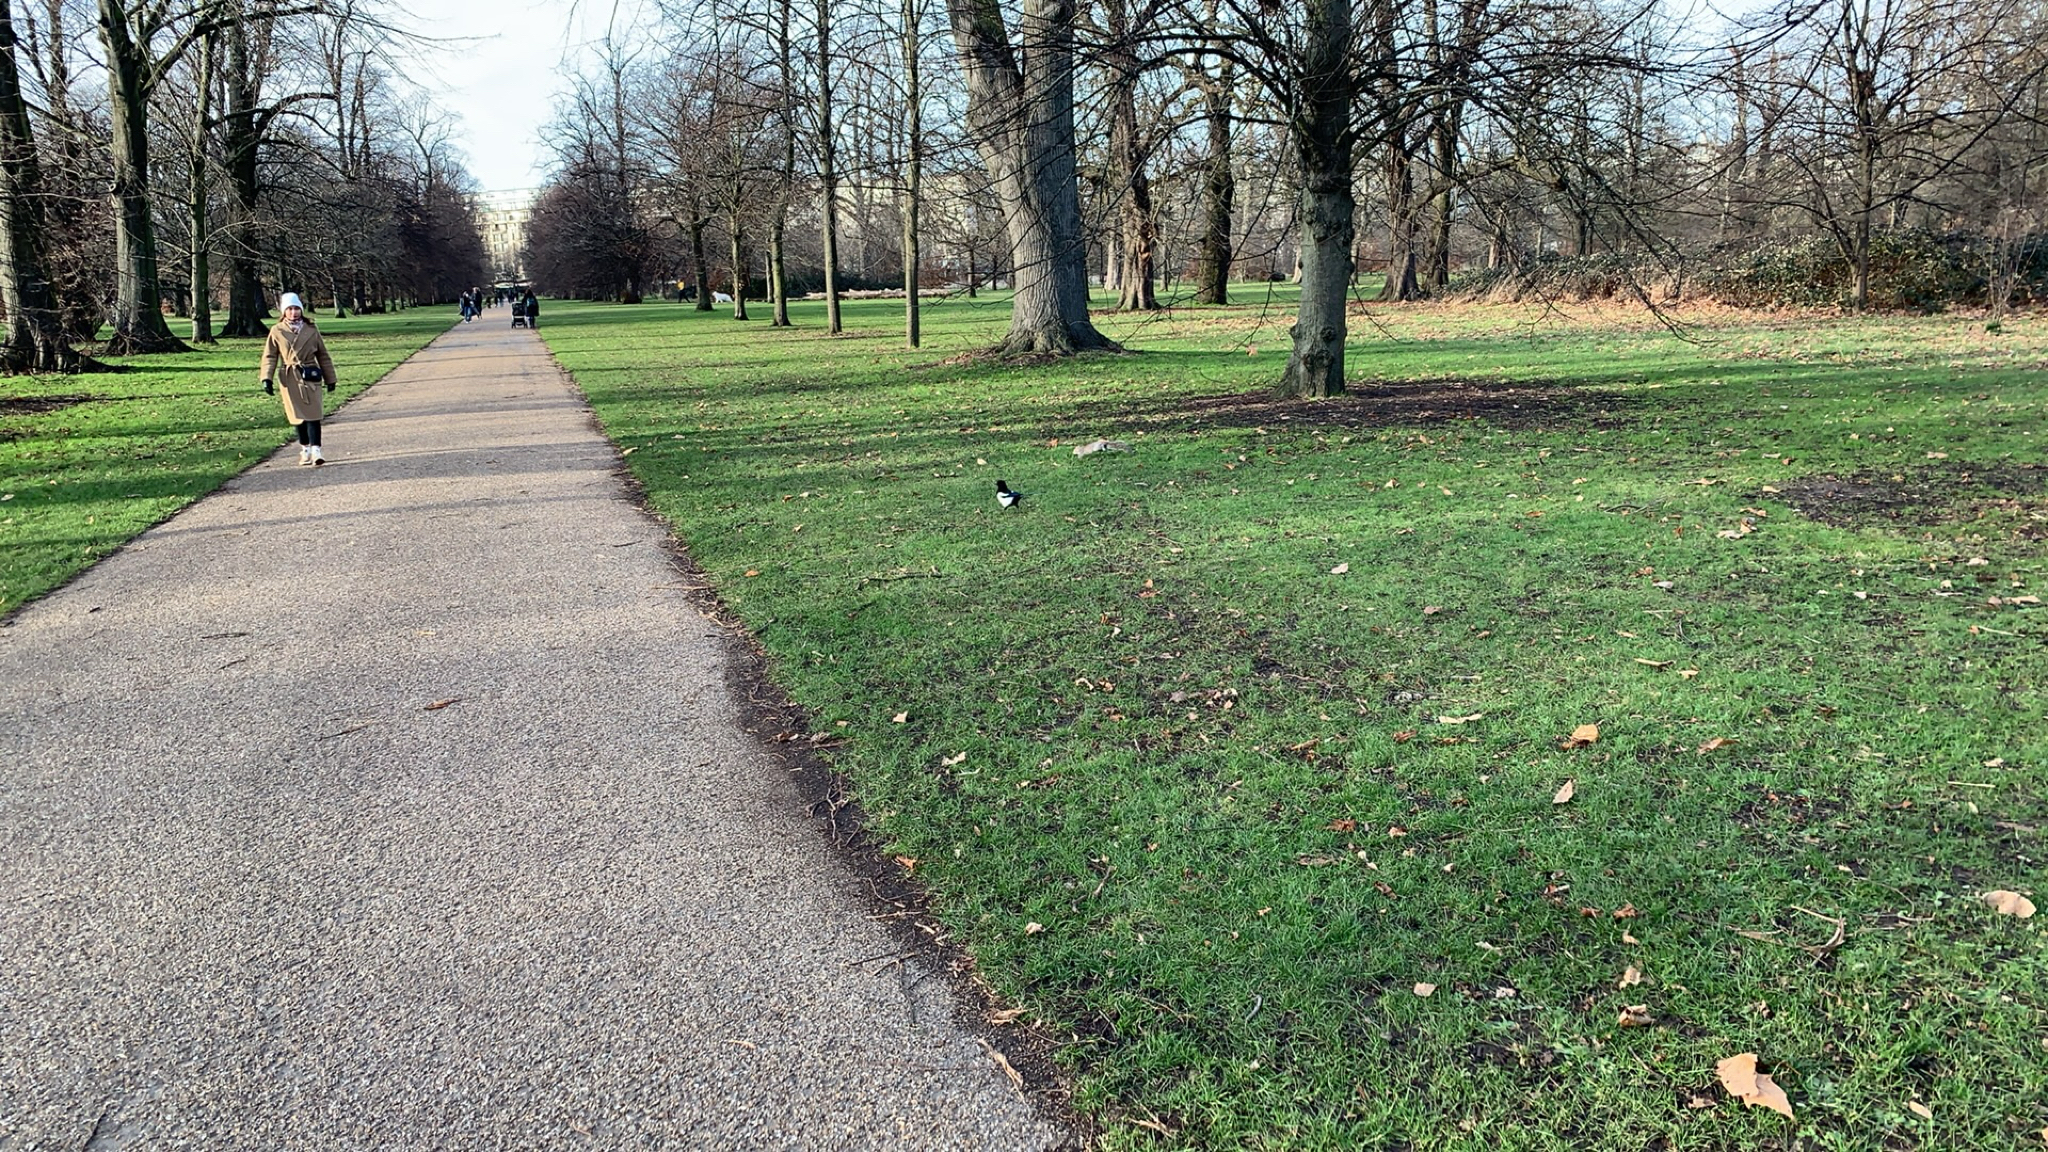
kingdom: Animalia
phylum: Chordata
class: Aves
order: Passeriformes
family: Corvidae
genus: Pica
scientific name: Pica pica
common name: Eurasian magpie
